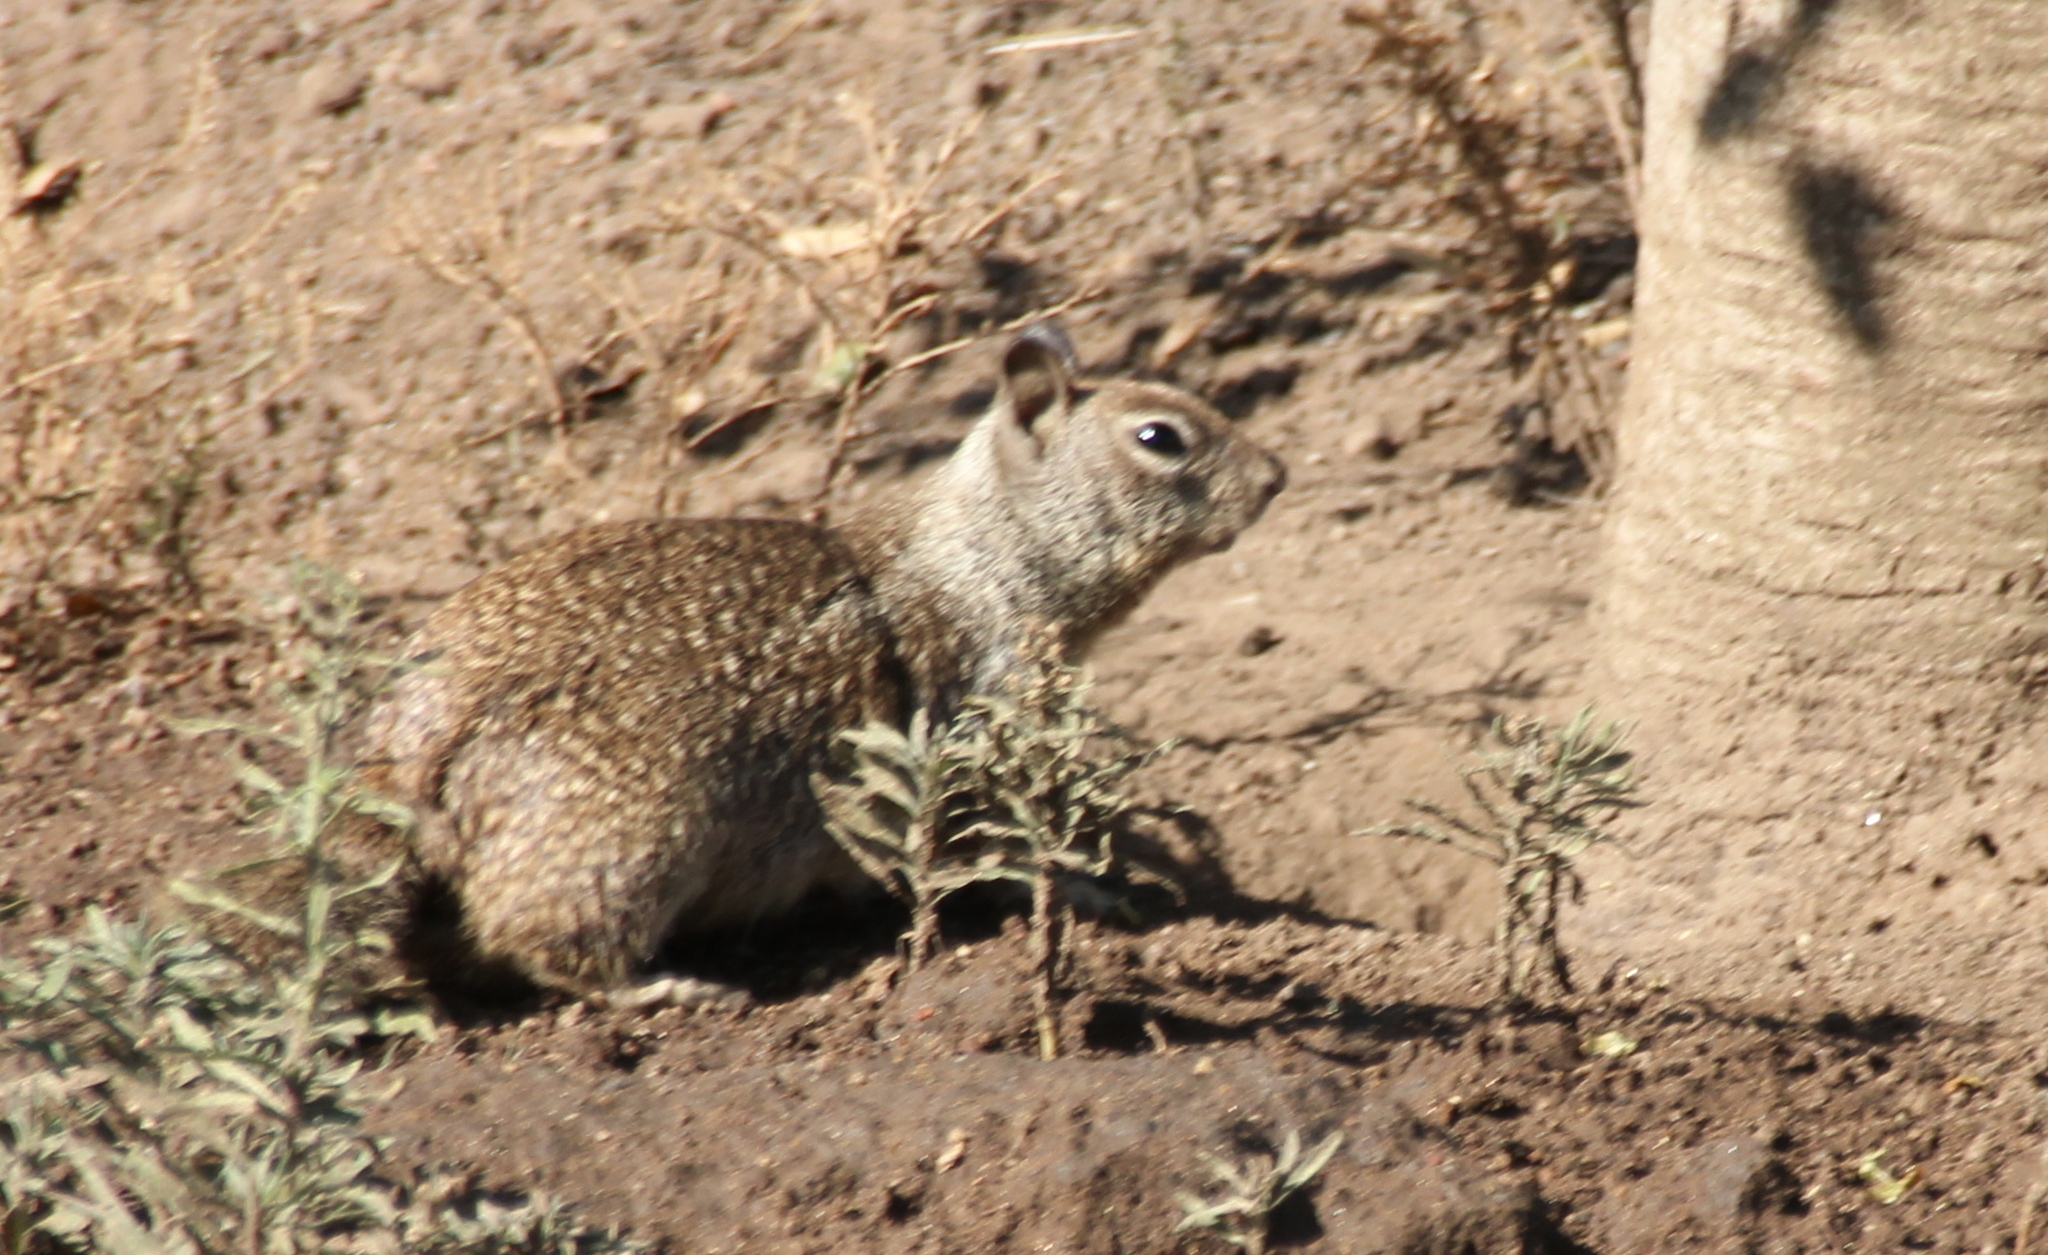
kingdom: Animalia
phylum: Chordata
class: Mammalia
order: Rodentia
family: Sciuridae
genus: Otospermophilus
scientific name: Otospermophilus beecheyi
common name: California ground squirrel
